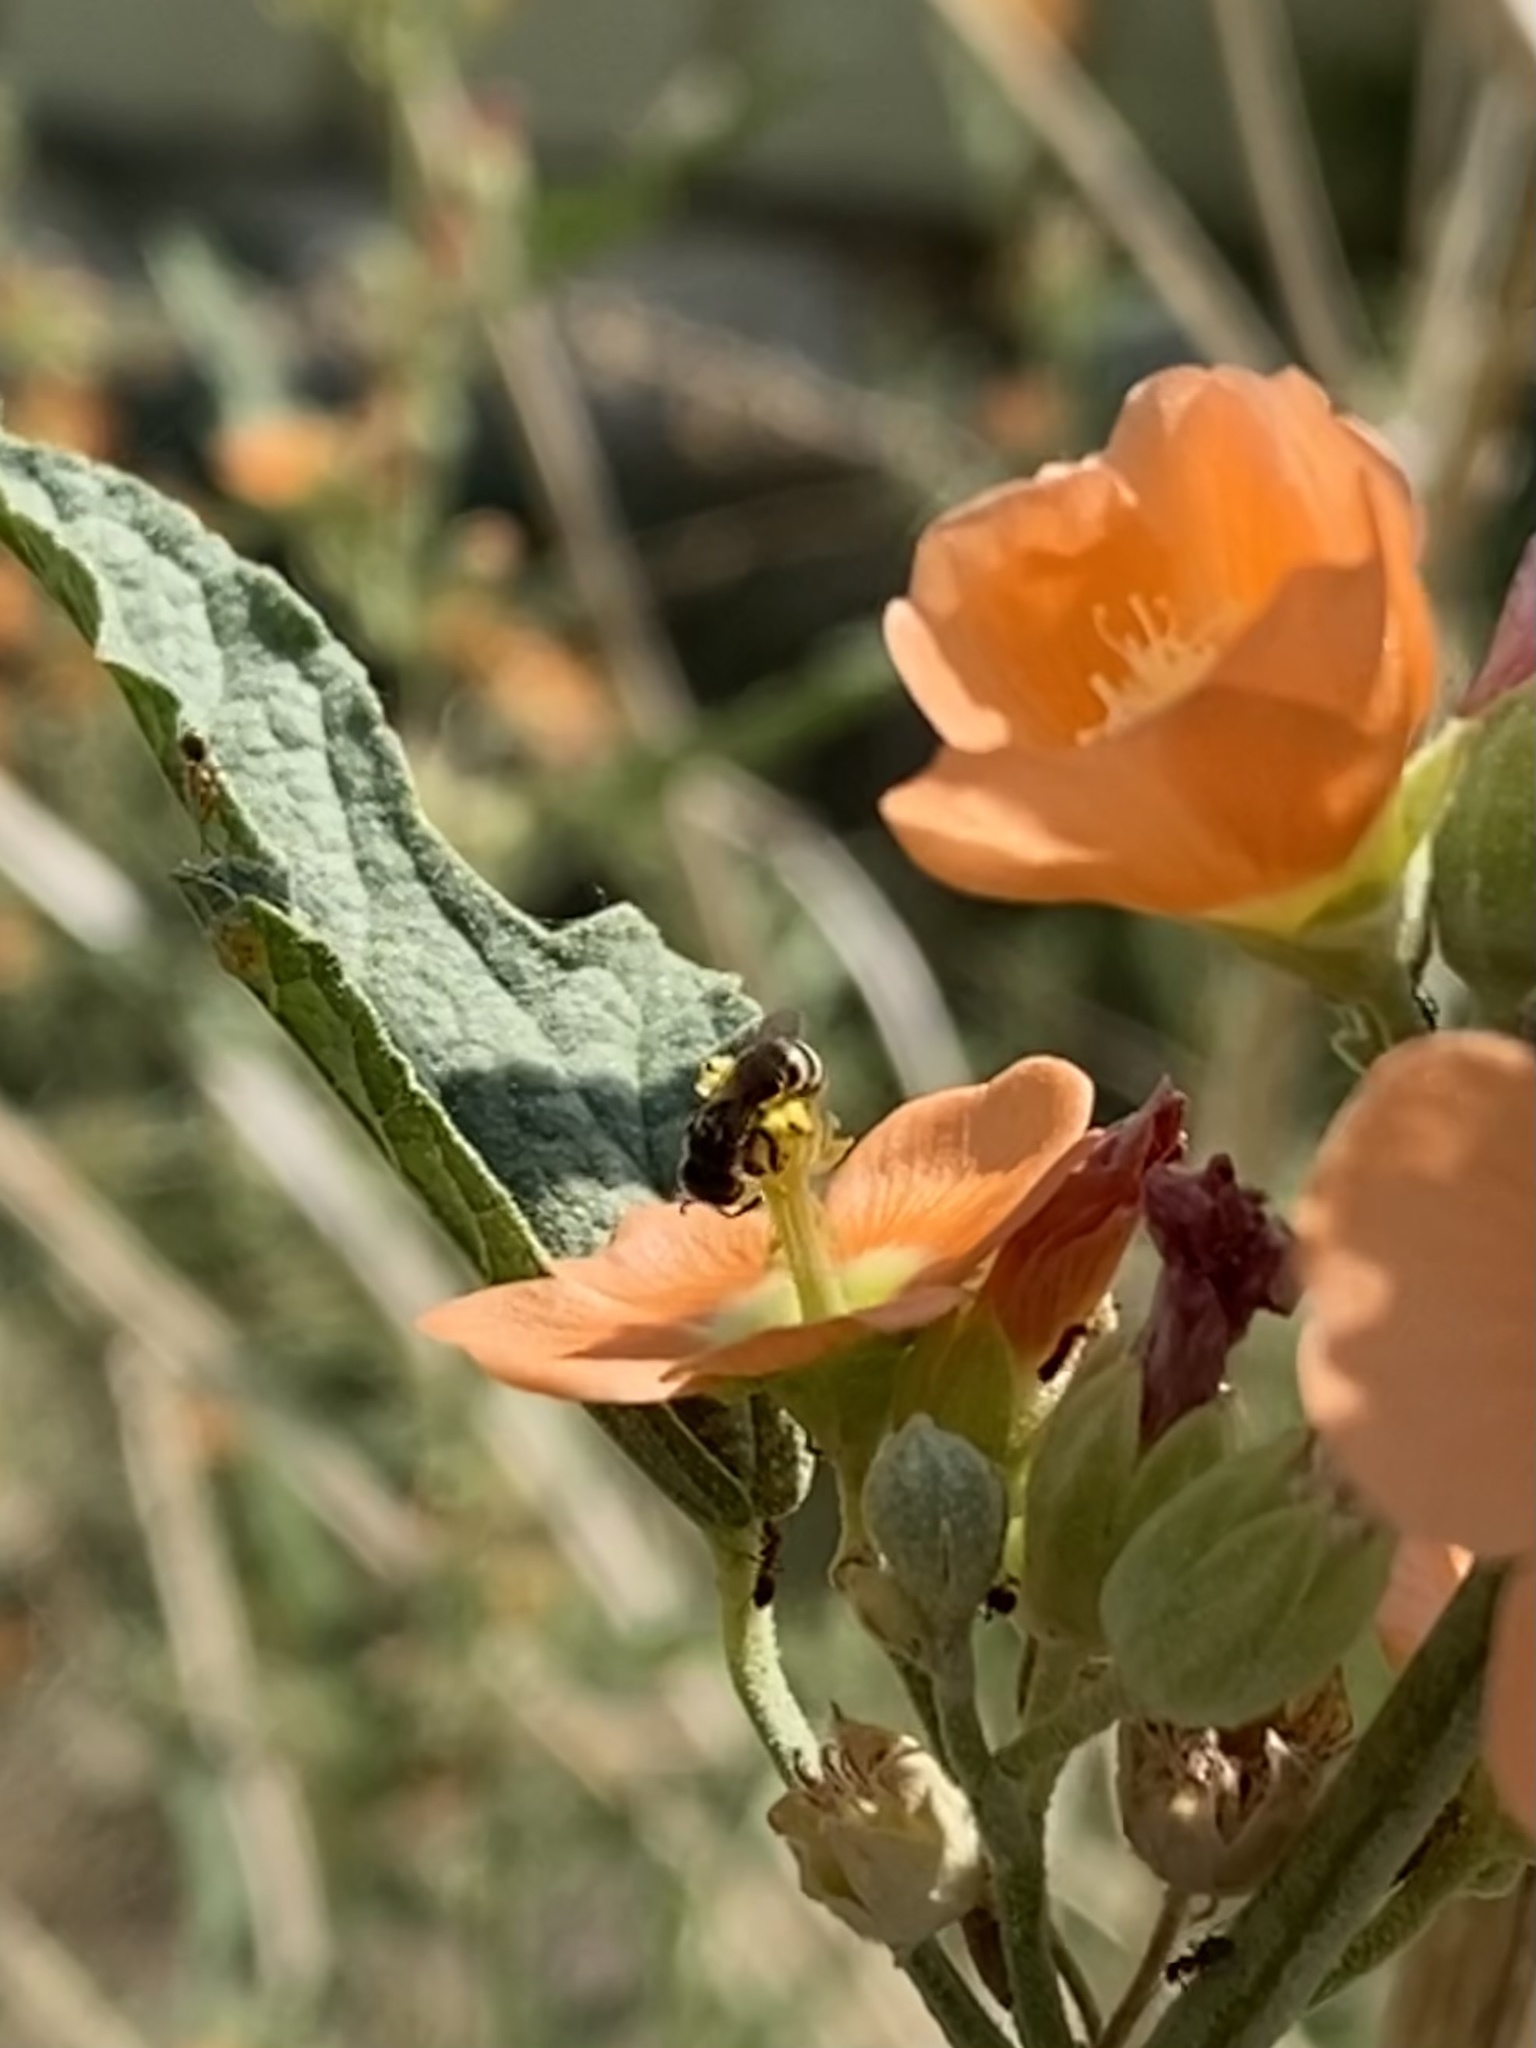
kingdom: Animalia
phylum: Arthropoda
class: Insecta
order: Hymenoptera
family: Halictidae
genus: Halictus
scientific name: Halictus tripartitus
